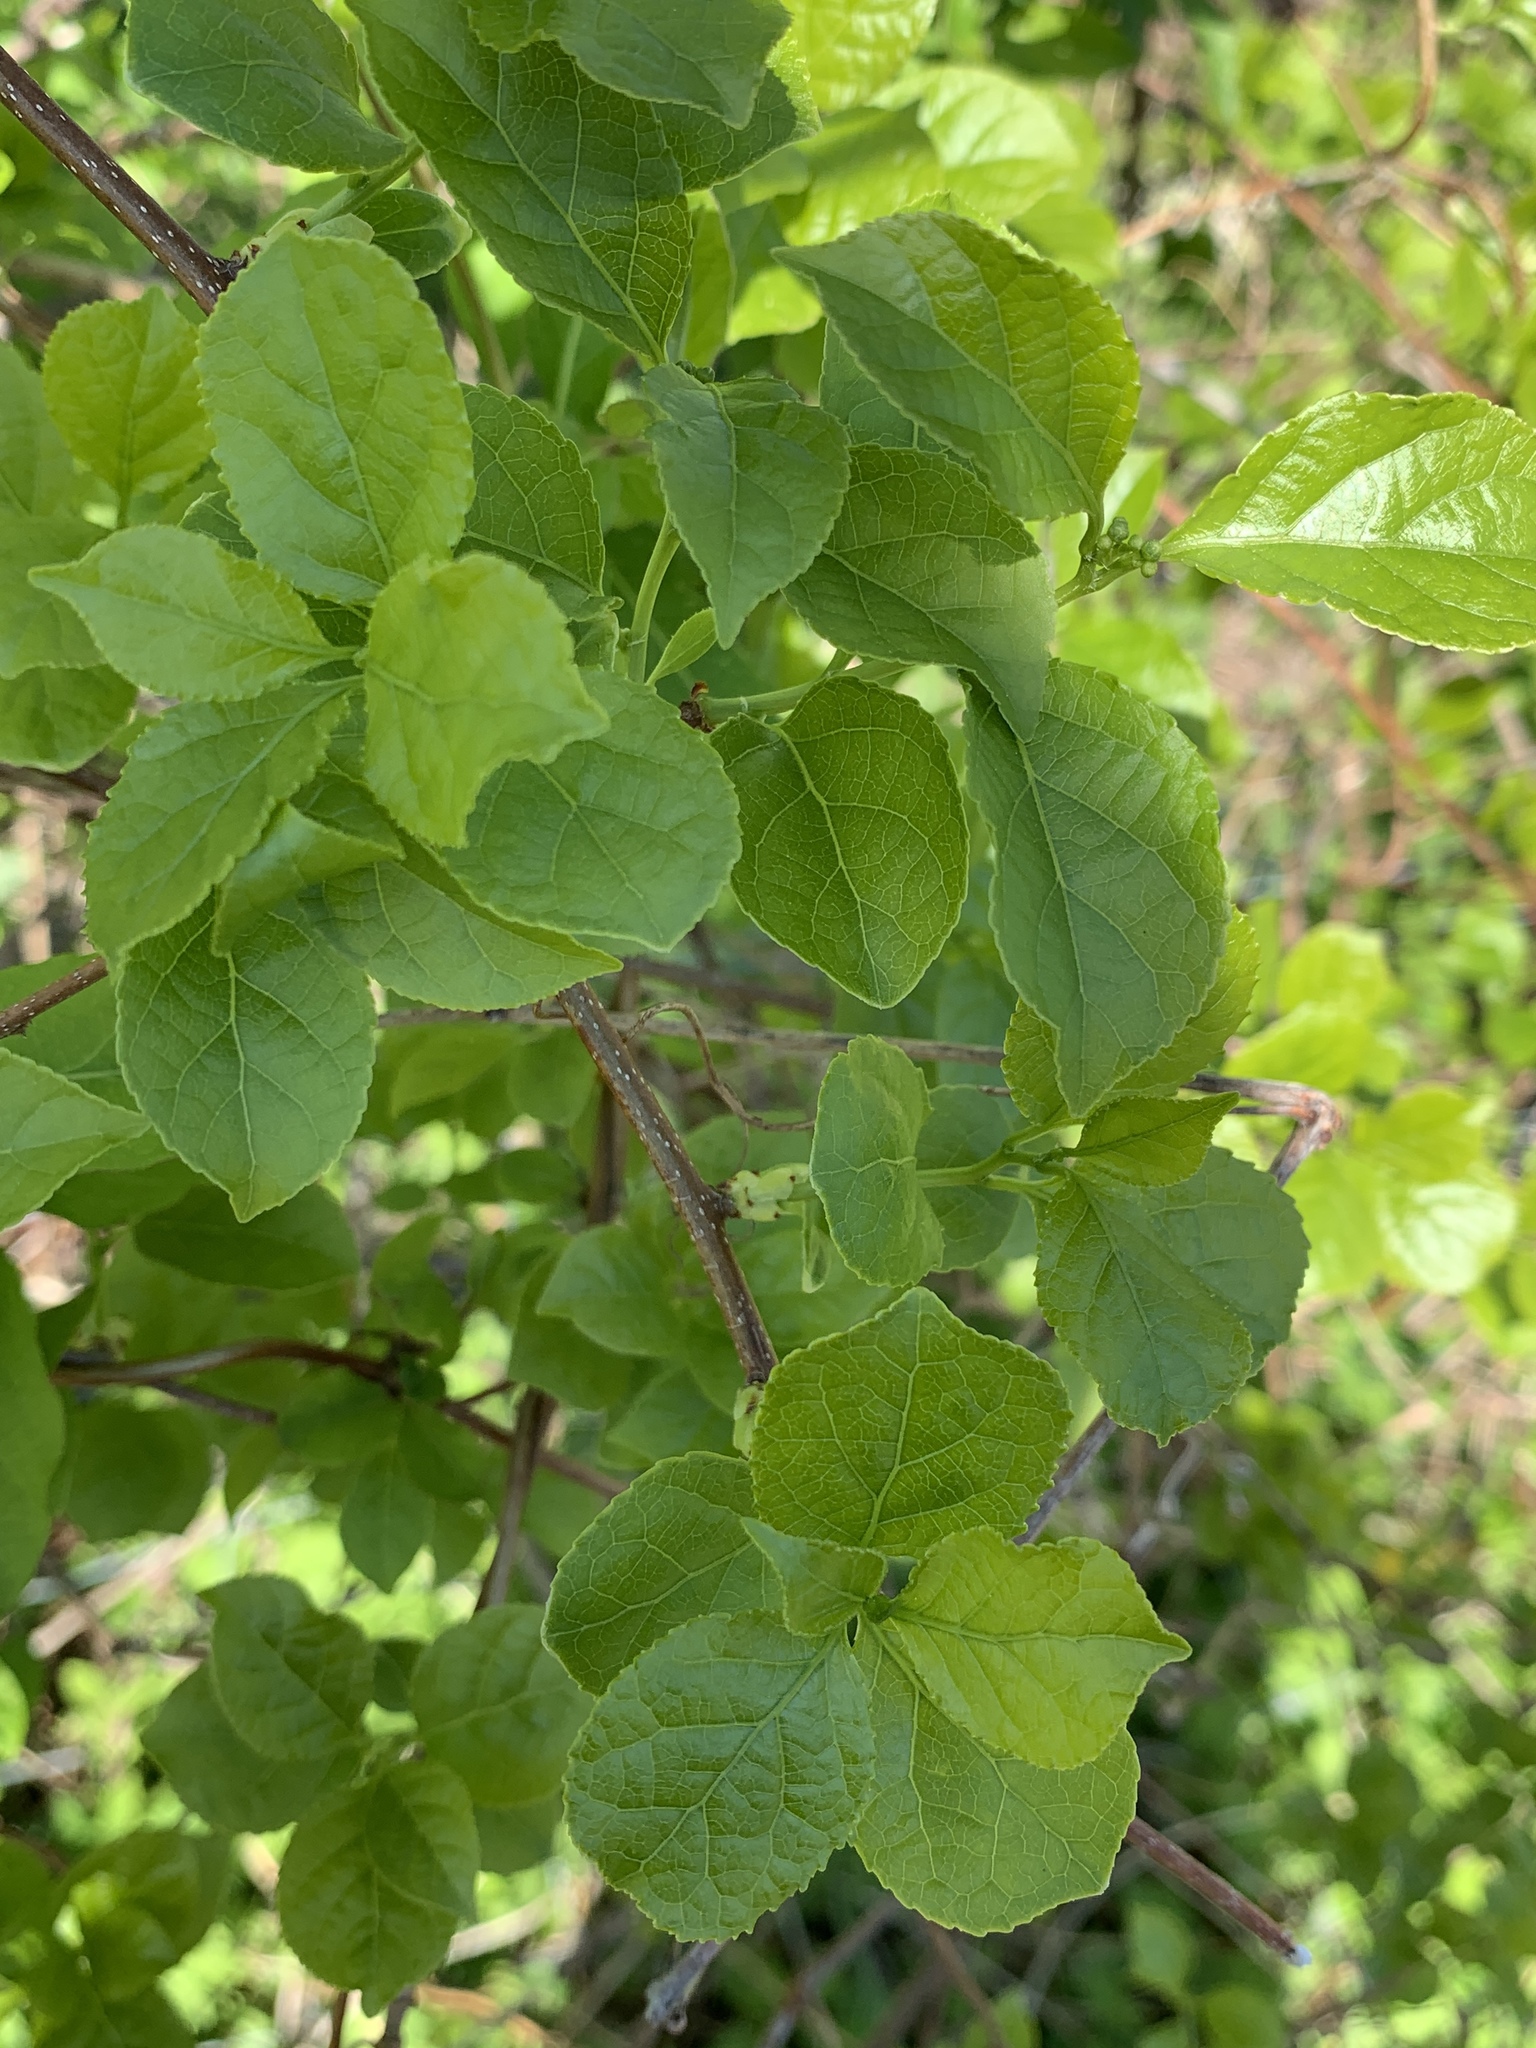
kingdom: Plantae
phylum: Tracheophyta
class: Magnoliopsida
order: Celastrales
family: Celastraceae
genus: Celastrus
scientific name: Celastrus orbiculatus
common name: Oriental bittersweet
